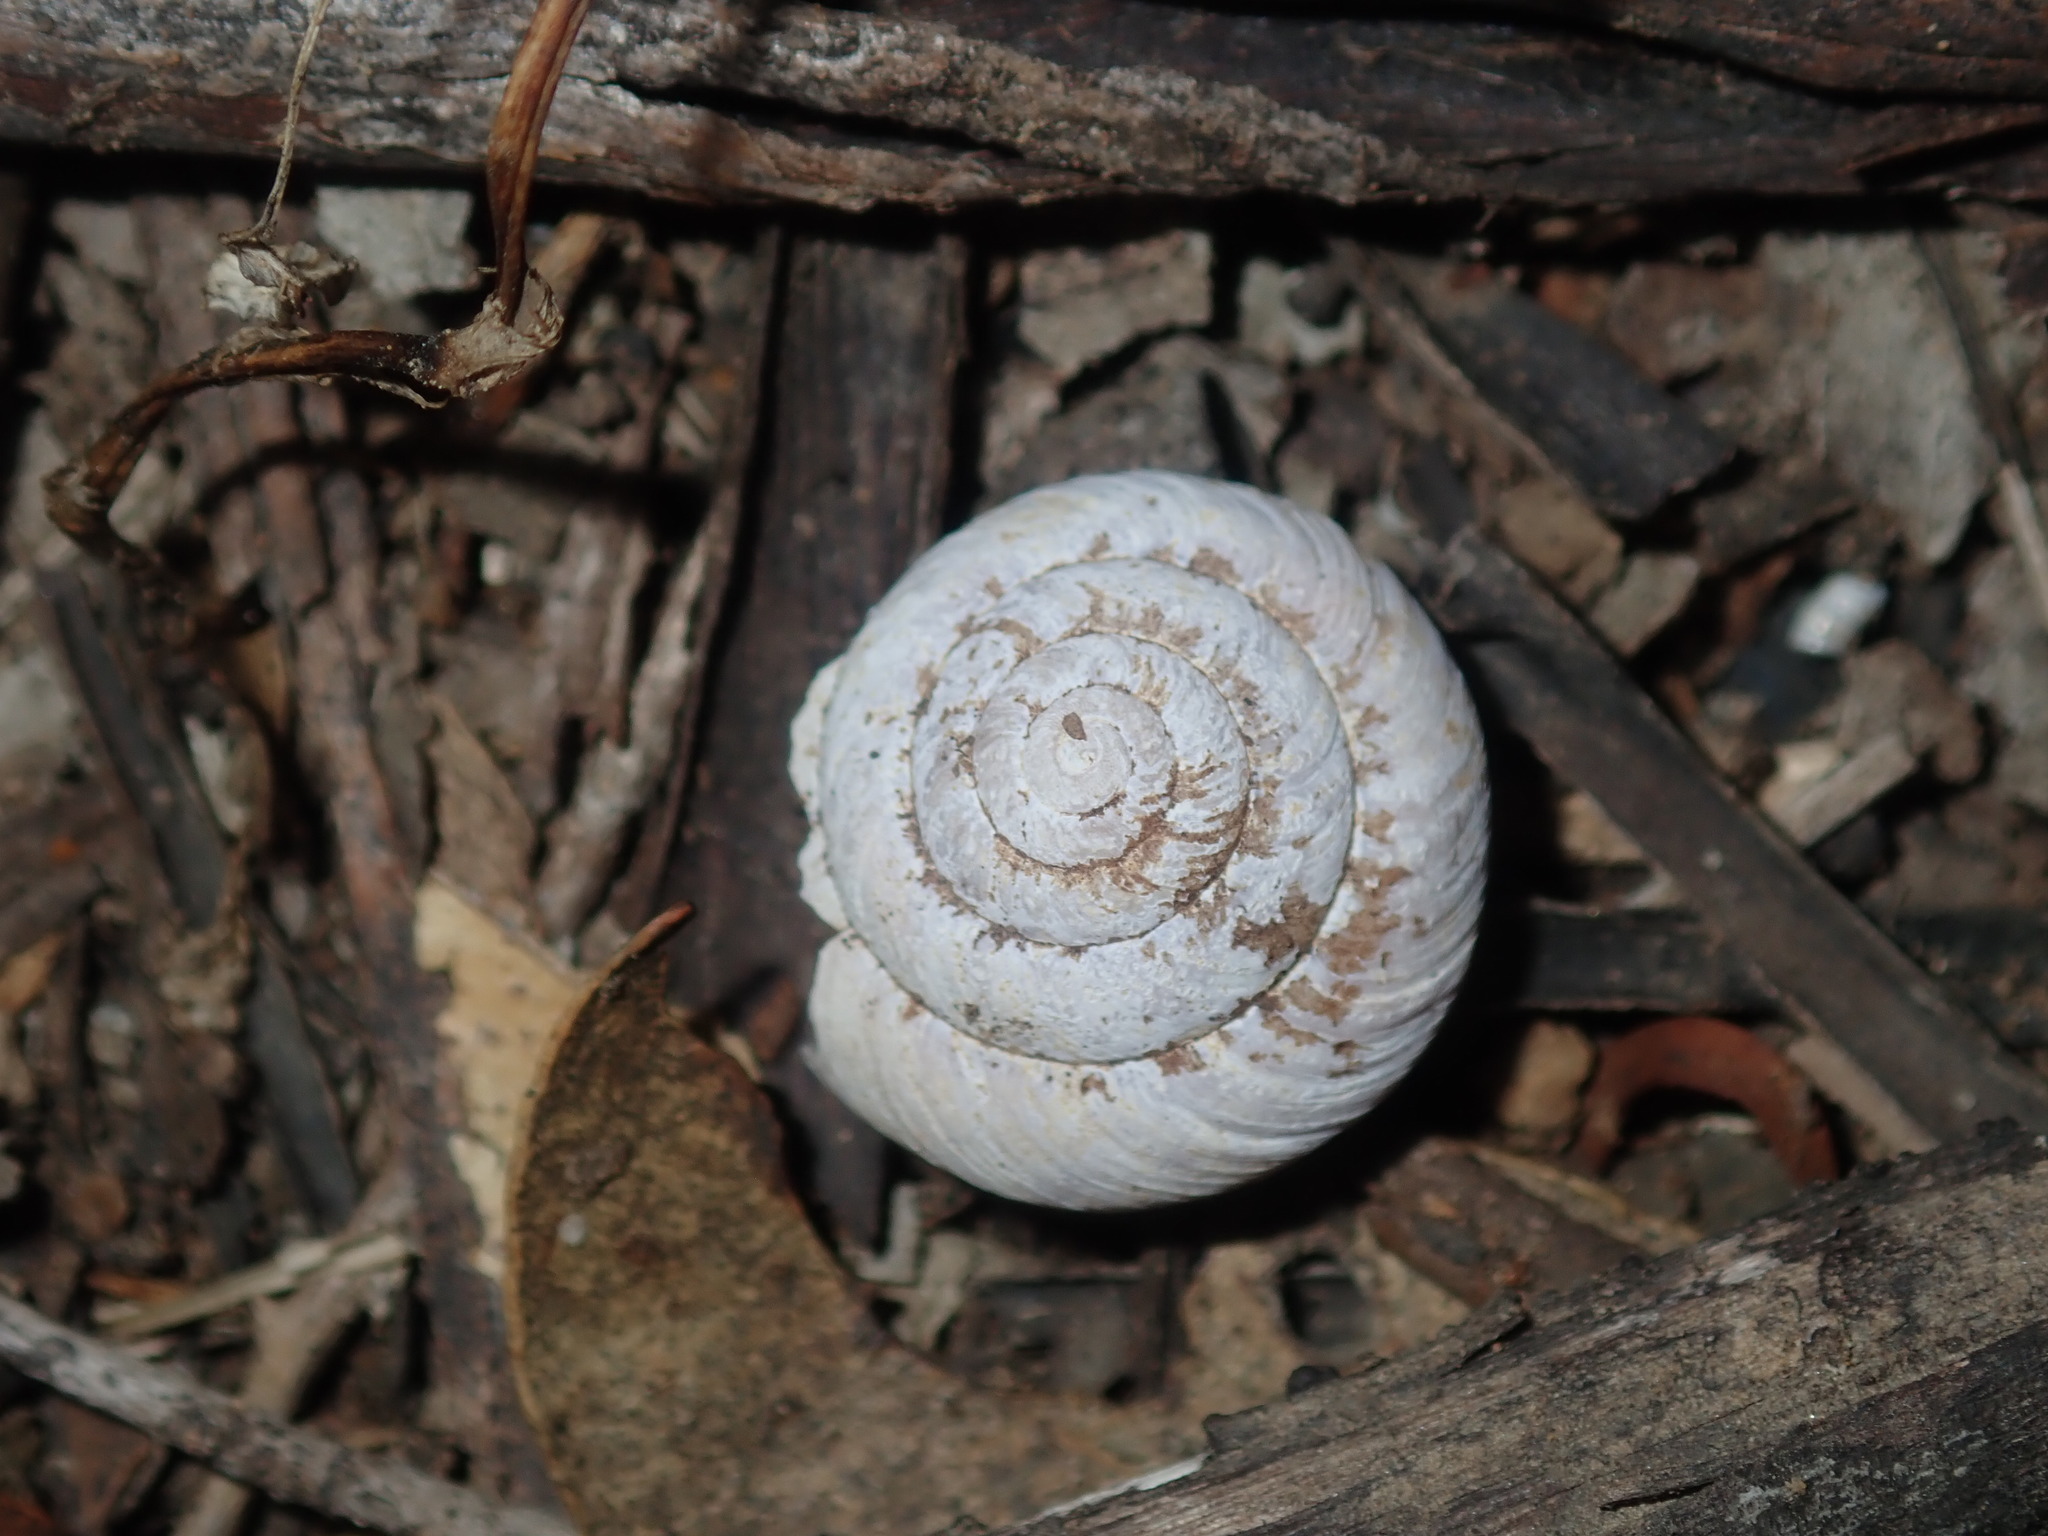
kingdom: Animalia
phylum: Mollusca
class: Gastropoda
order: Stylommatophora
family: Camaenidae
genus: Sauroconcha
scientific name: Sauroconcha sheai
